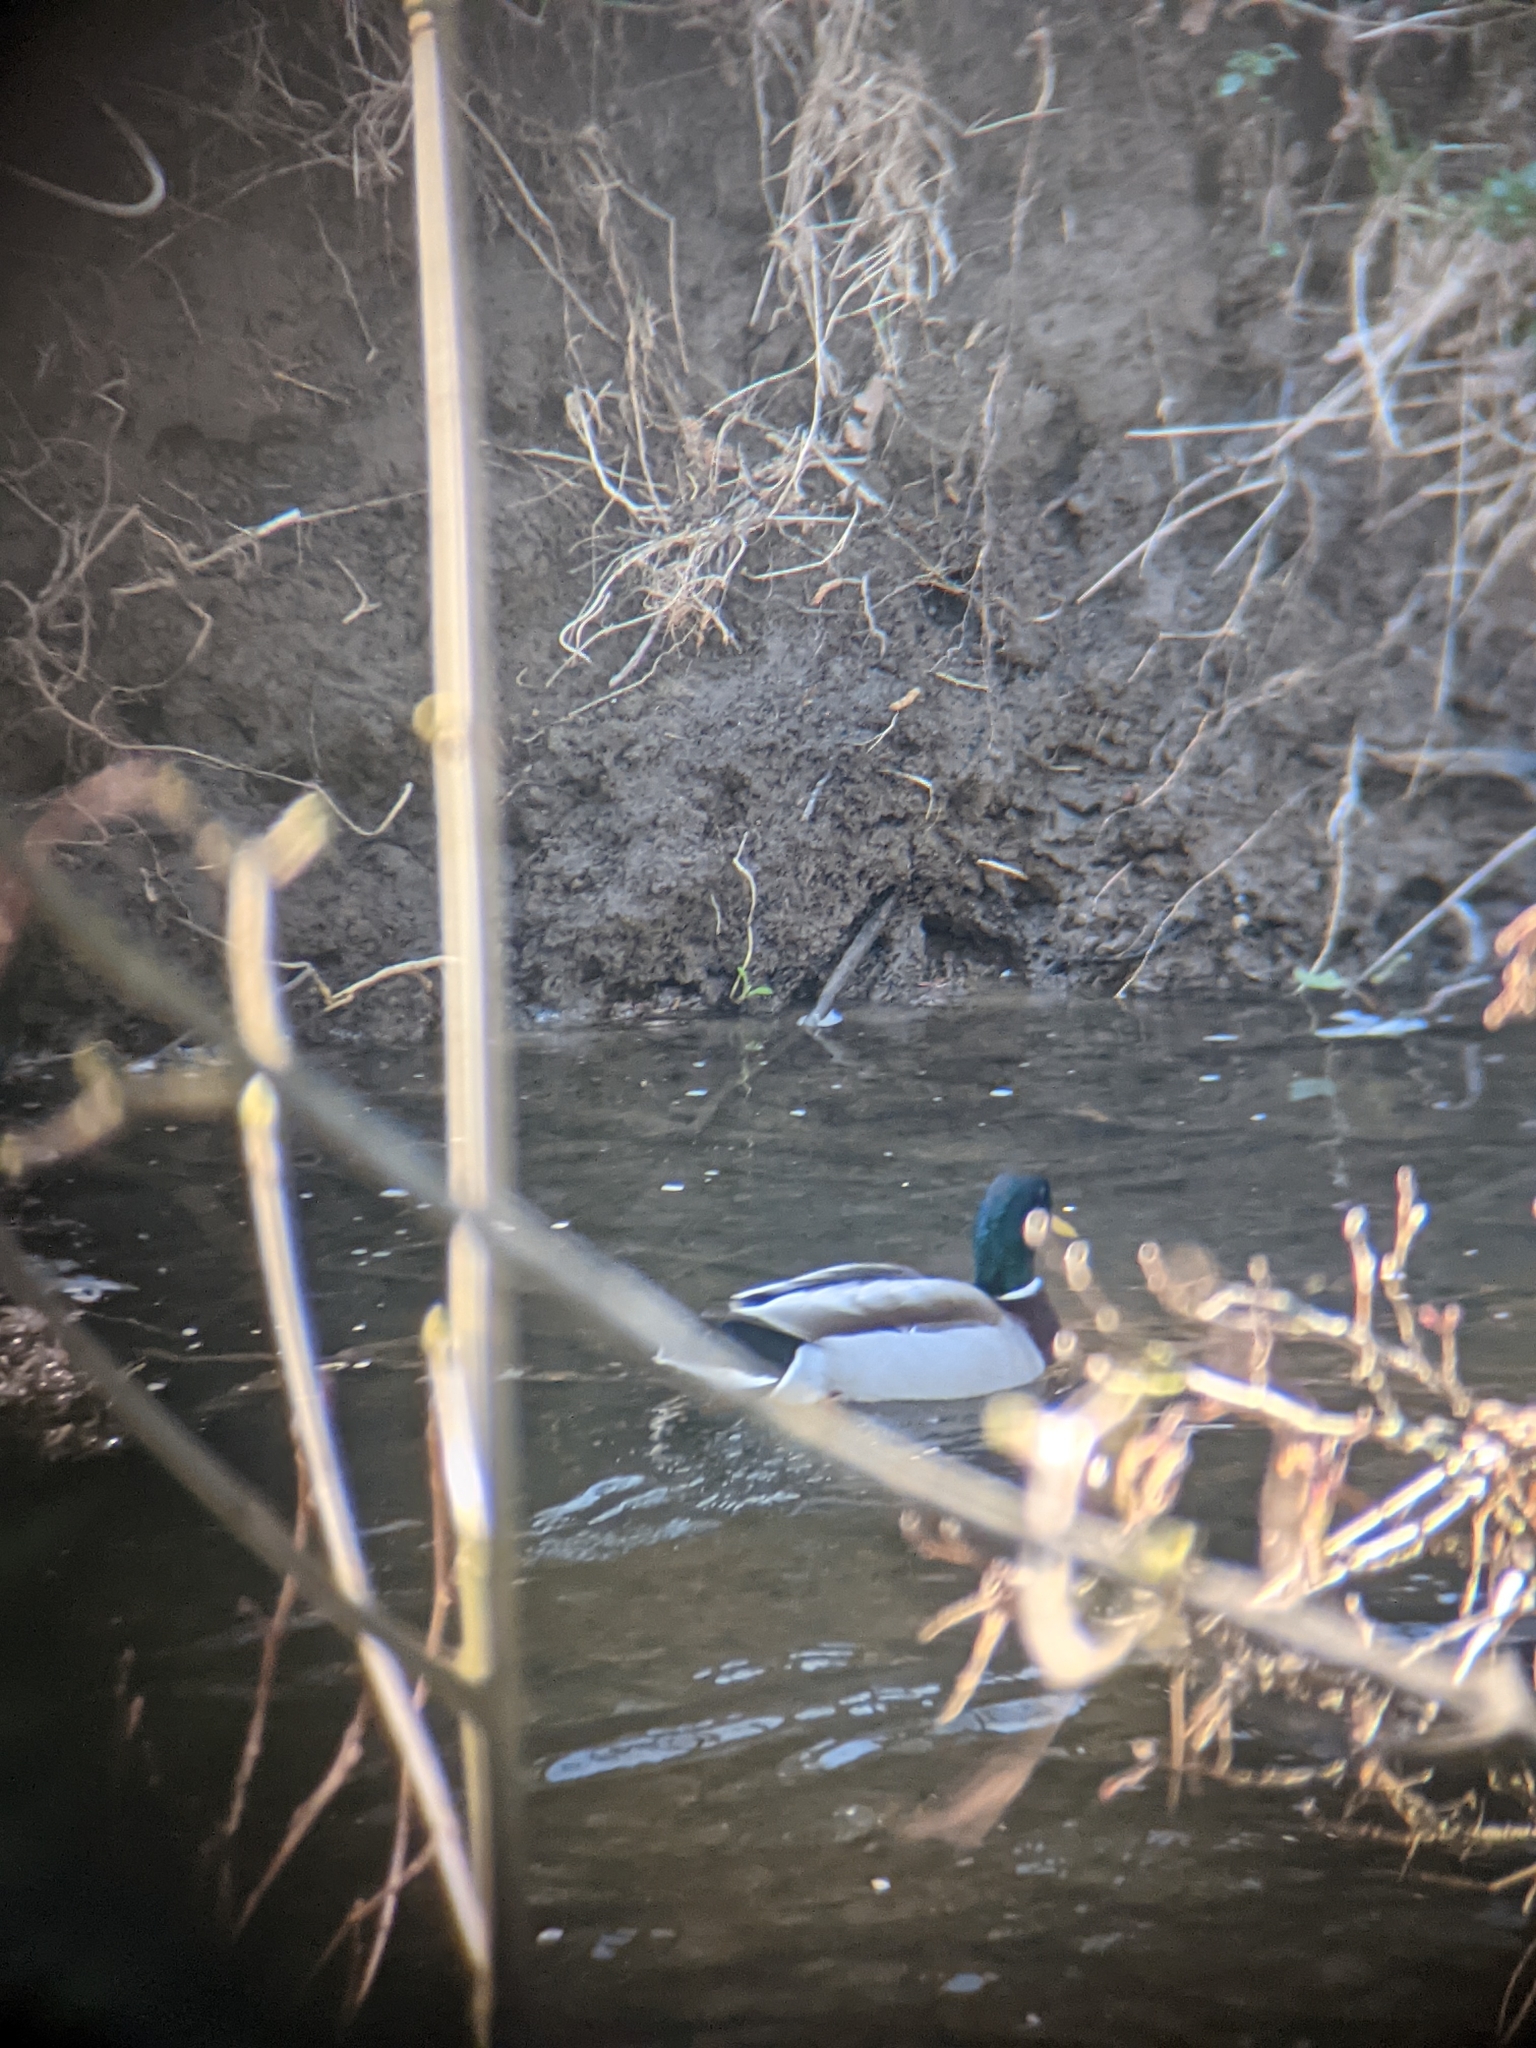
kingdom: Animalia
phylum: Chordata
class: Aves
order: Anseriformes
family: Anatidae
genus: Anas
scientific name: Anas platyrhynchos
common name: Mallard
